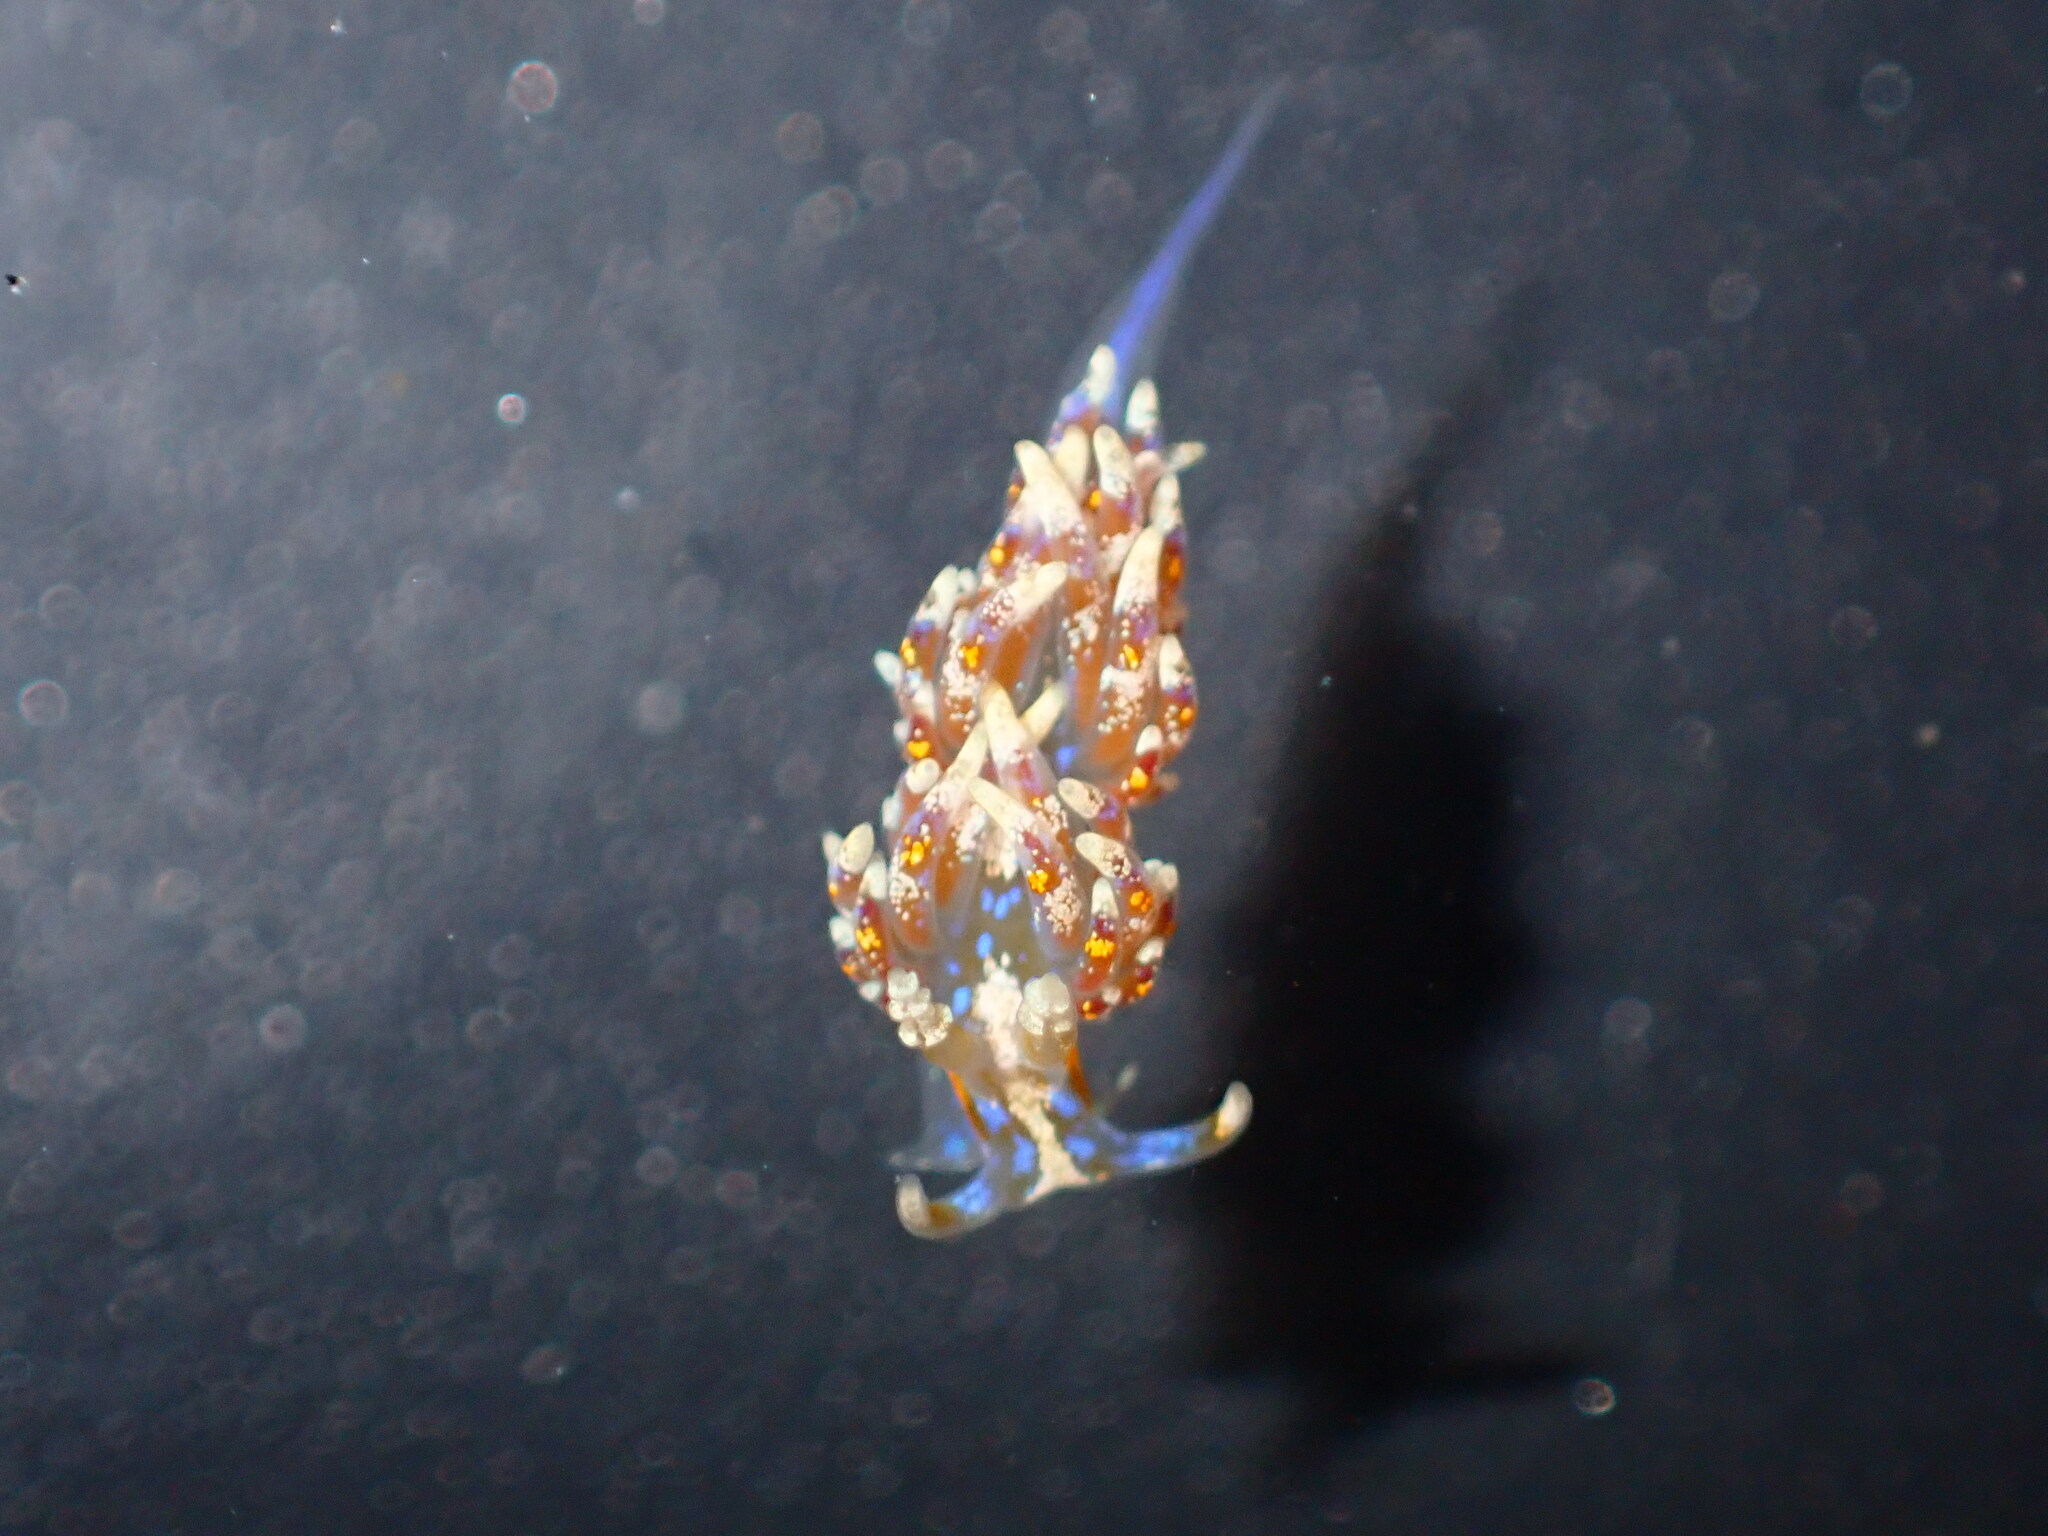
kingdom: Animalia
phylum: Mollusca
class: Gastropoda
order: Nudibranchia
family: Facelinidae
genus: Austraeolis
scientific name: Austraeolis ornata
